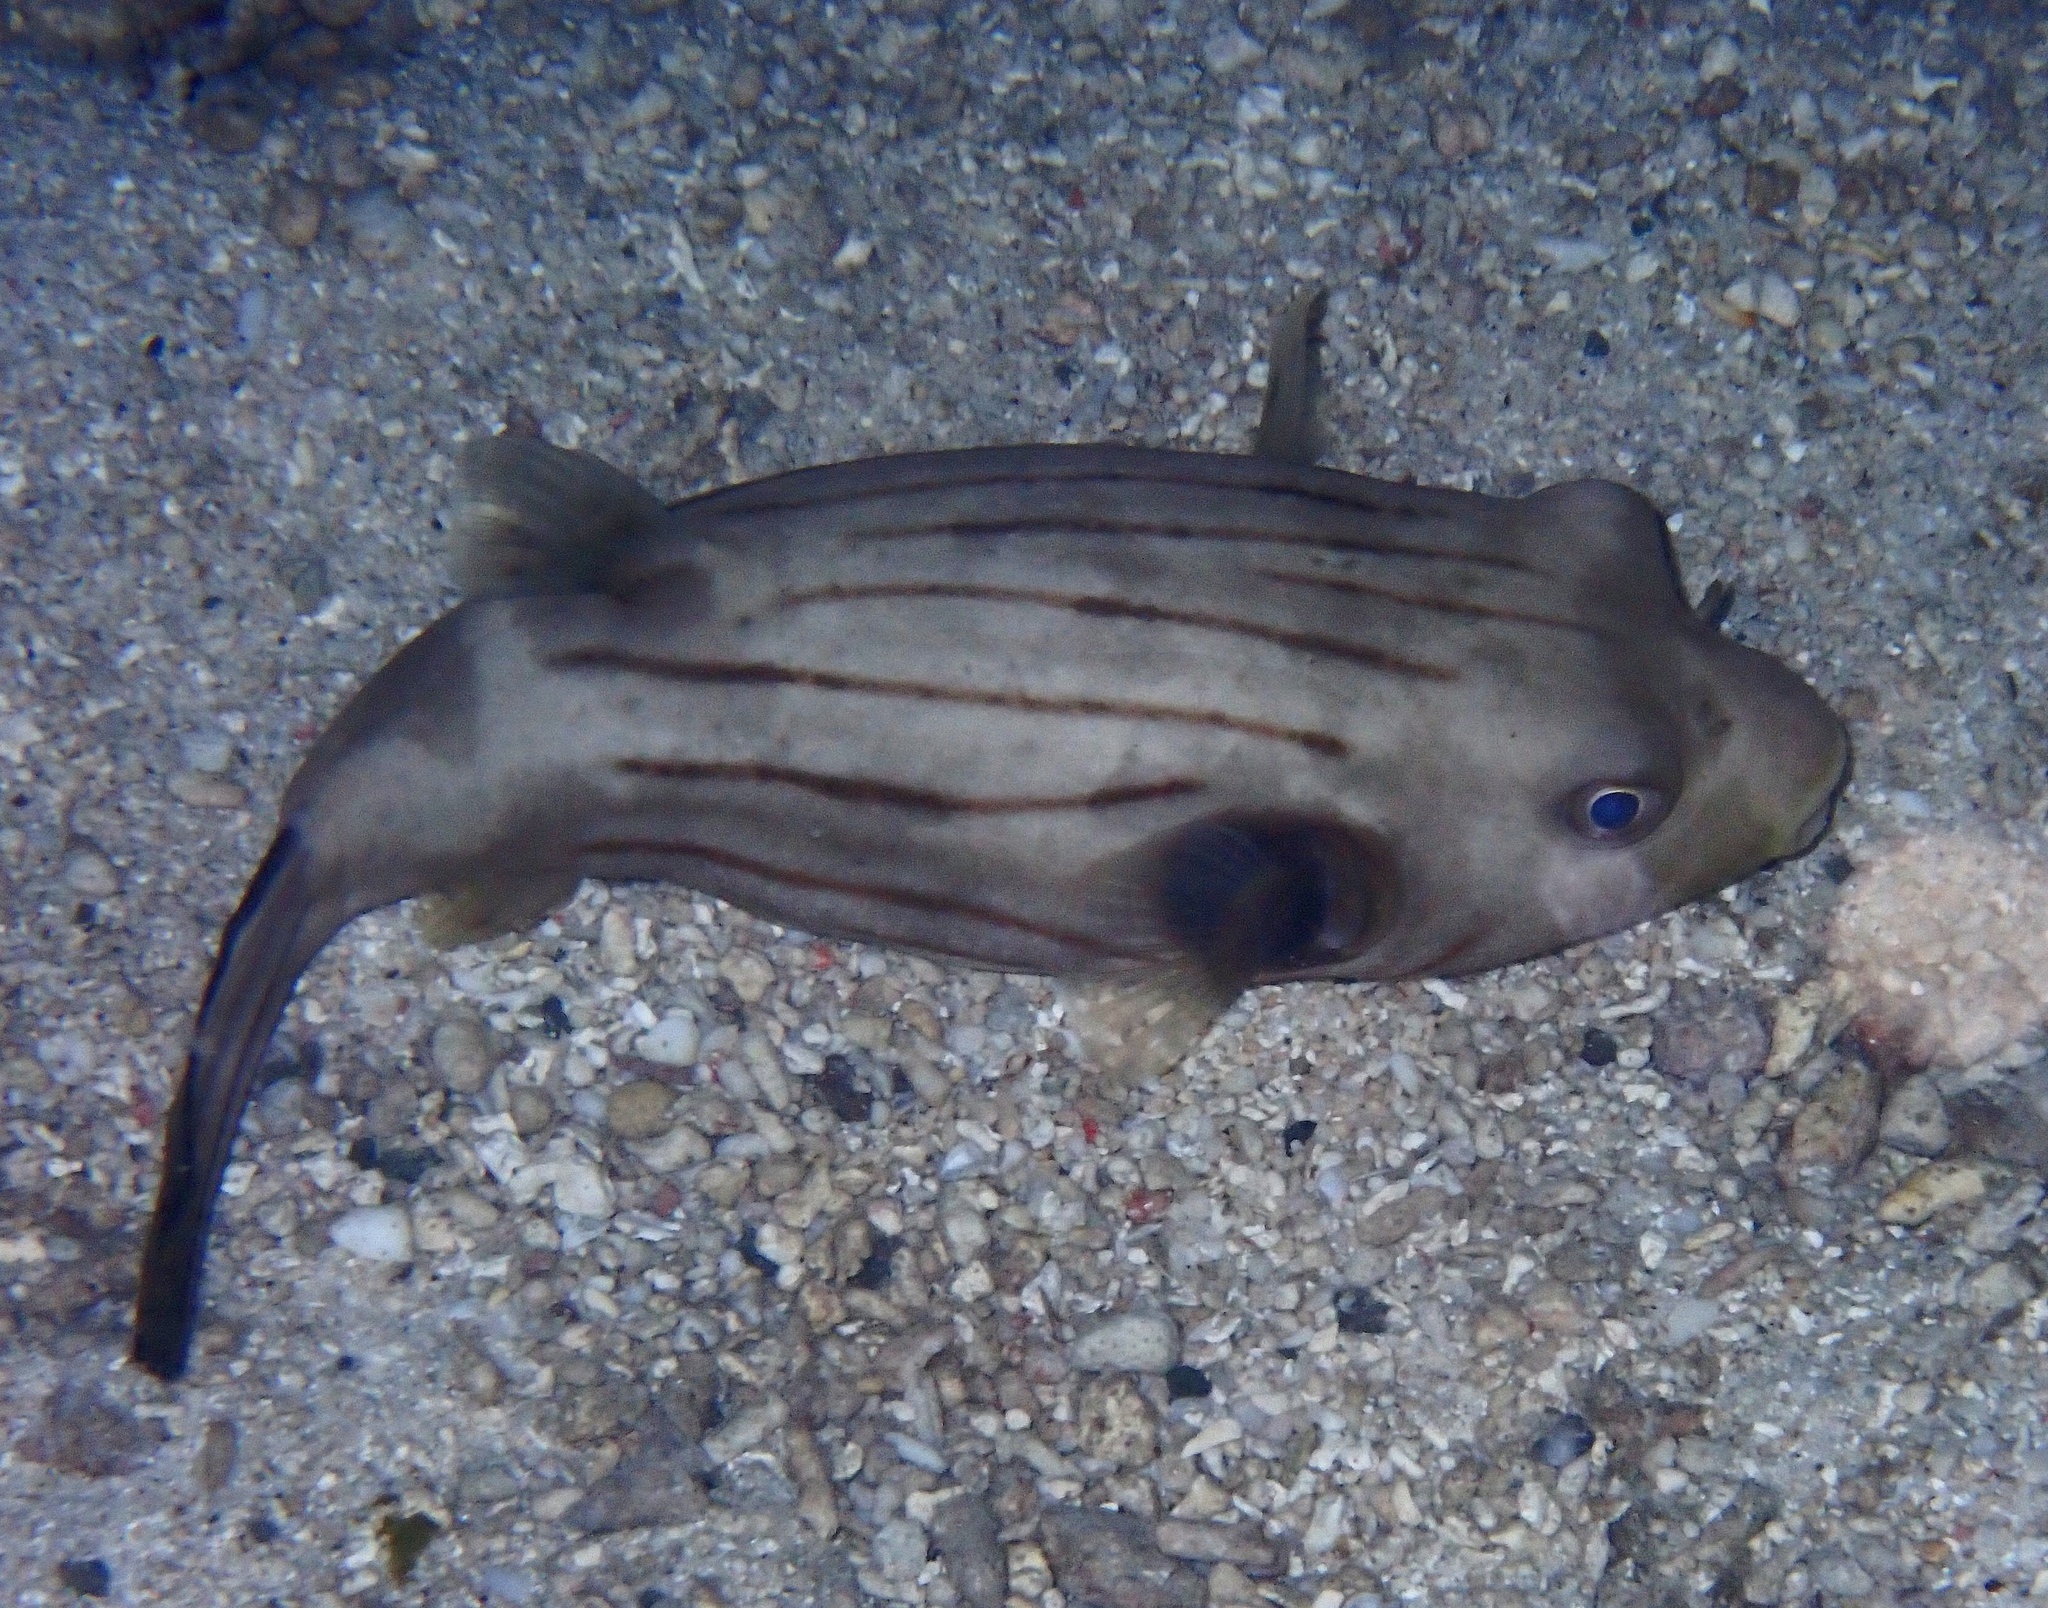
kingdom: Animalia
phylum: Chordata
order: Tetraodontiformes
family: Tetraodontidae
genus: Arothron
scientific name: Arothron manilensis
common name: Narrow-lined puffer
